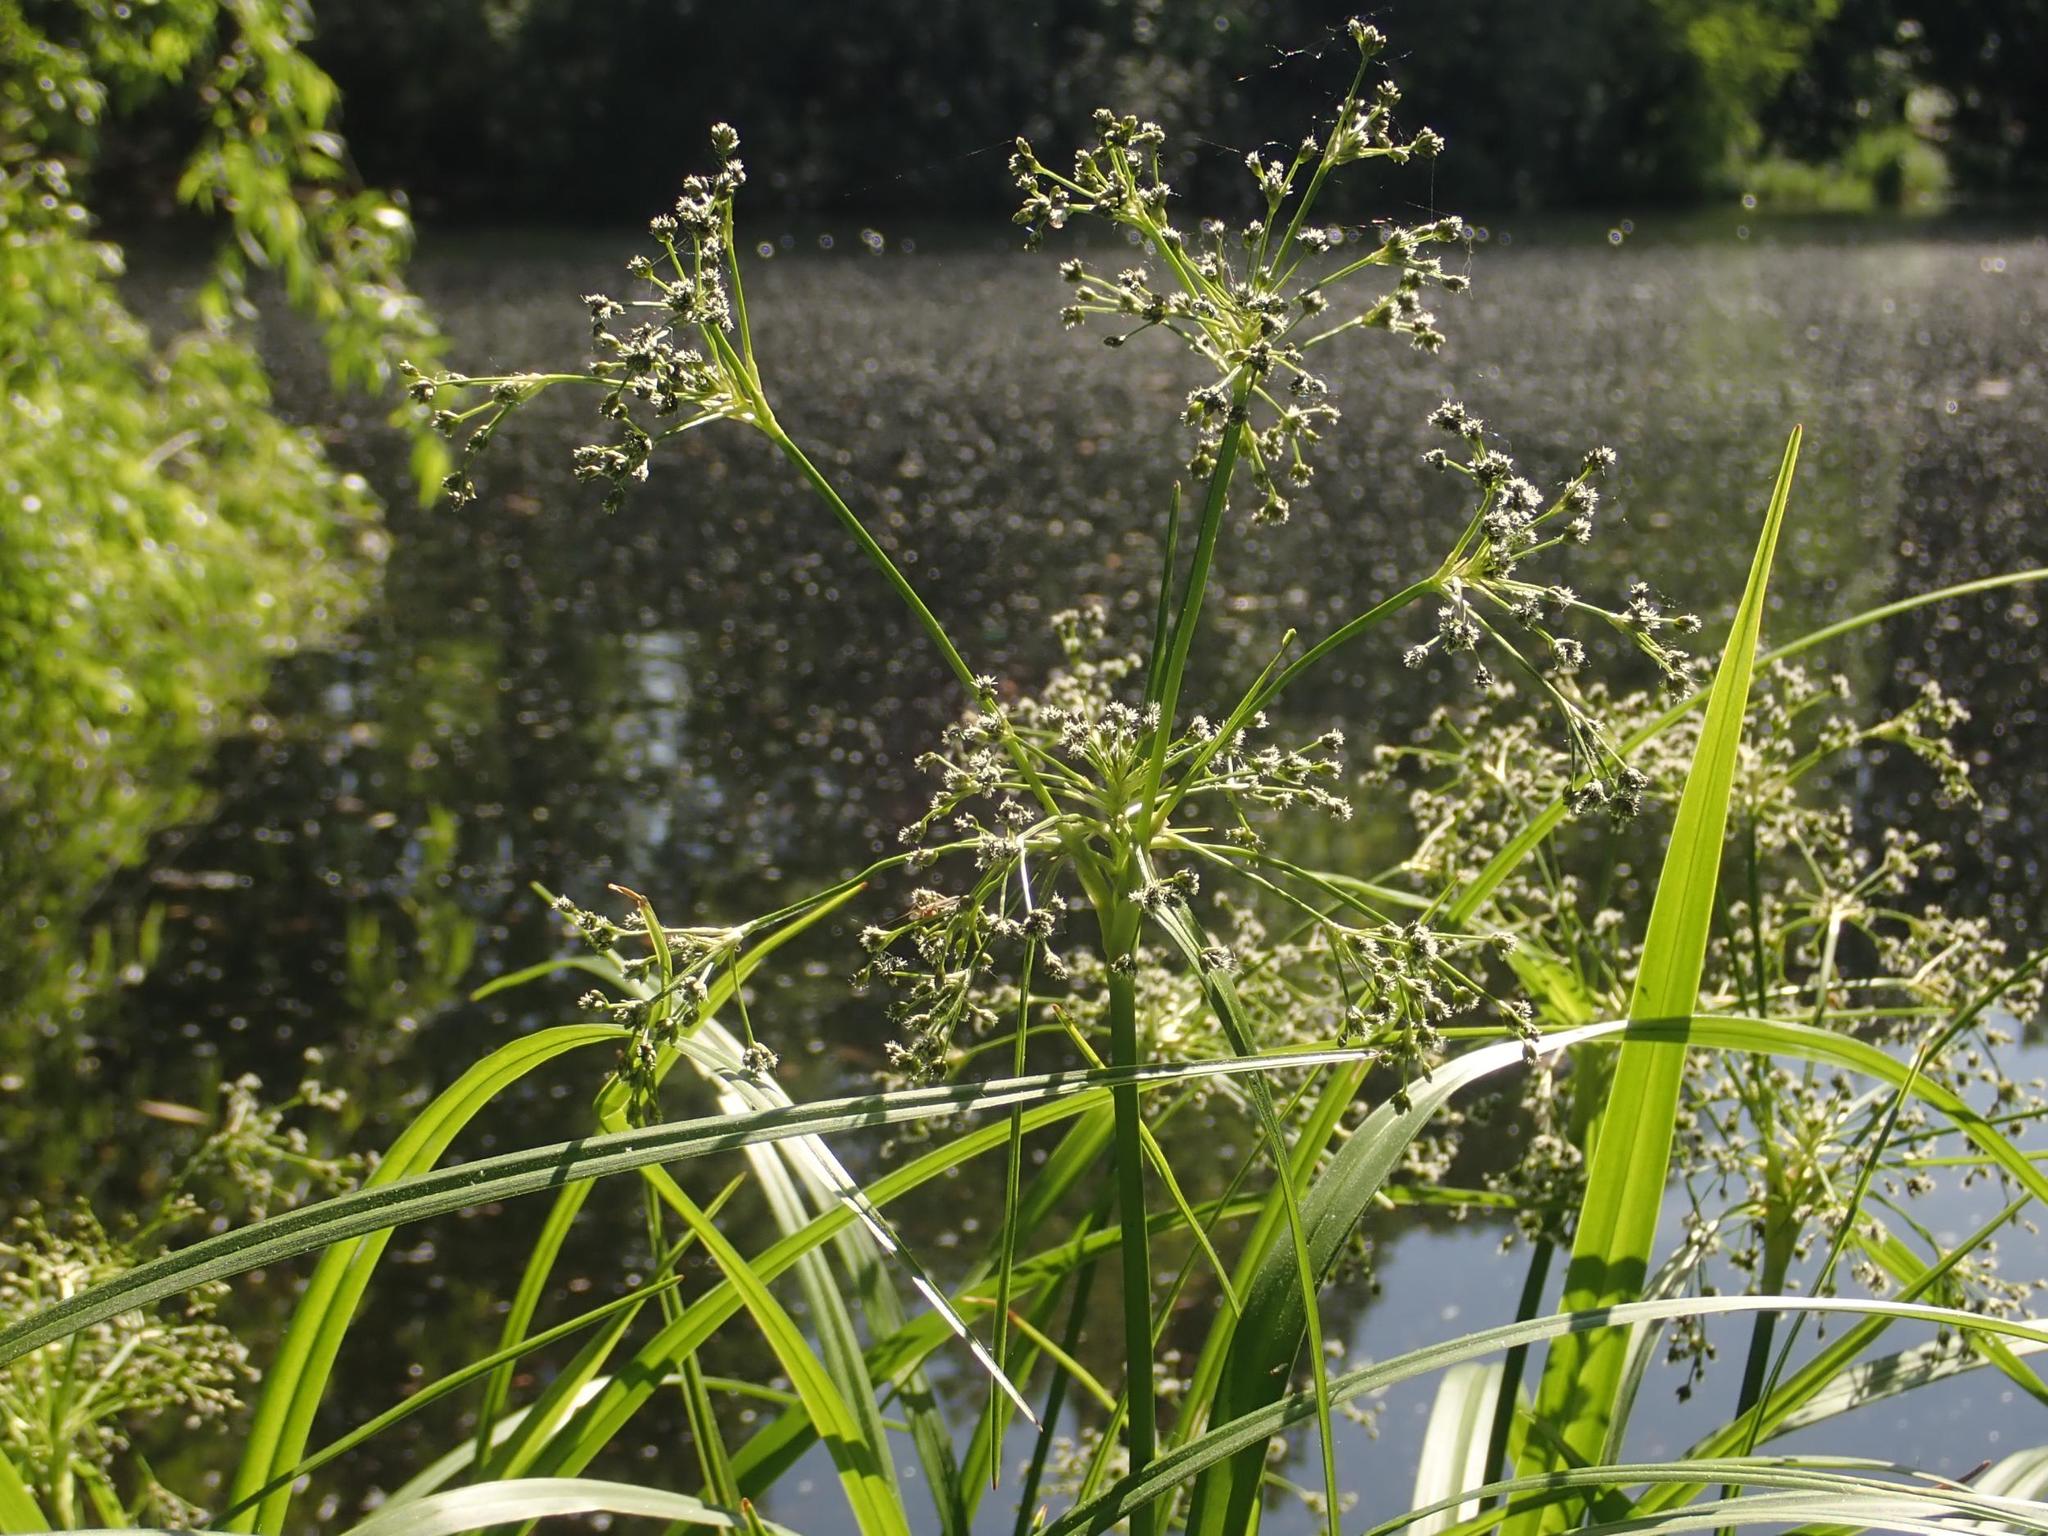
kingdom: Plantae
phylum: Tracheophyta
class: Liliopsida
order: Poales
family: Cyperaceae
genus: Scirpus
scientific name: Scirpus sylvaticus
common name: Wood club-rush
